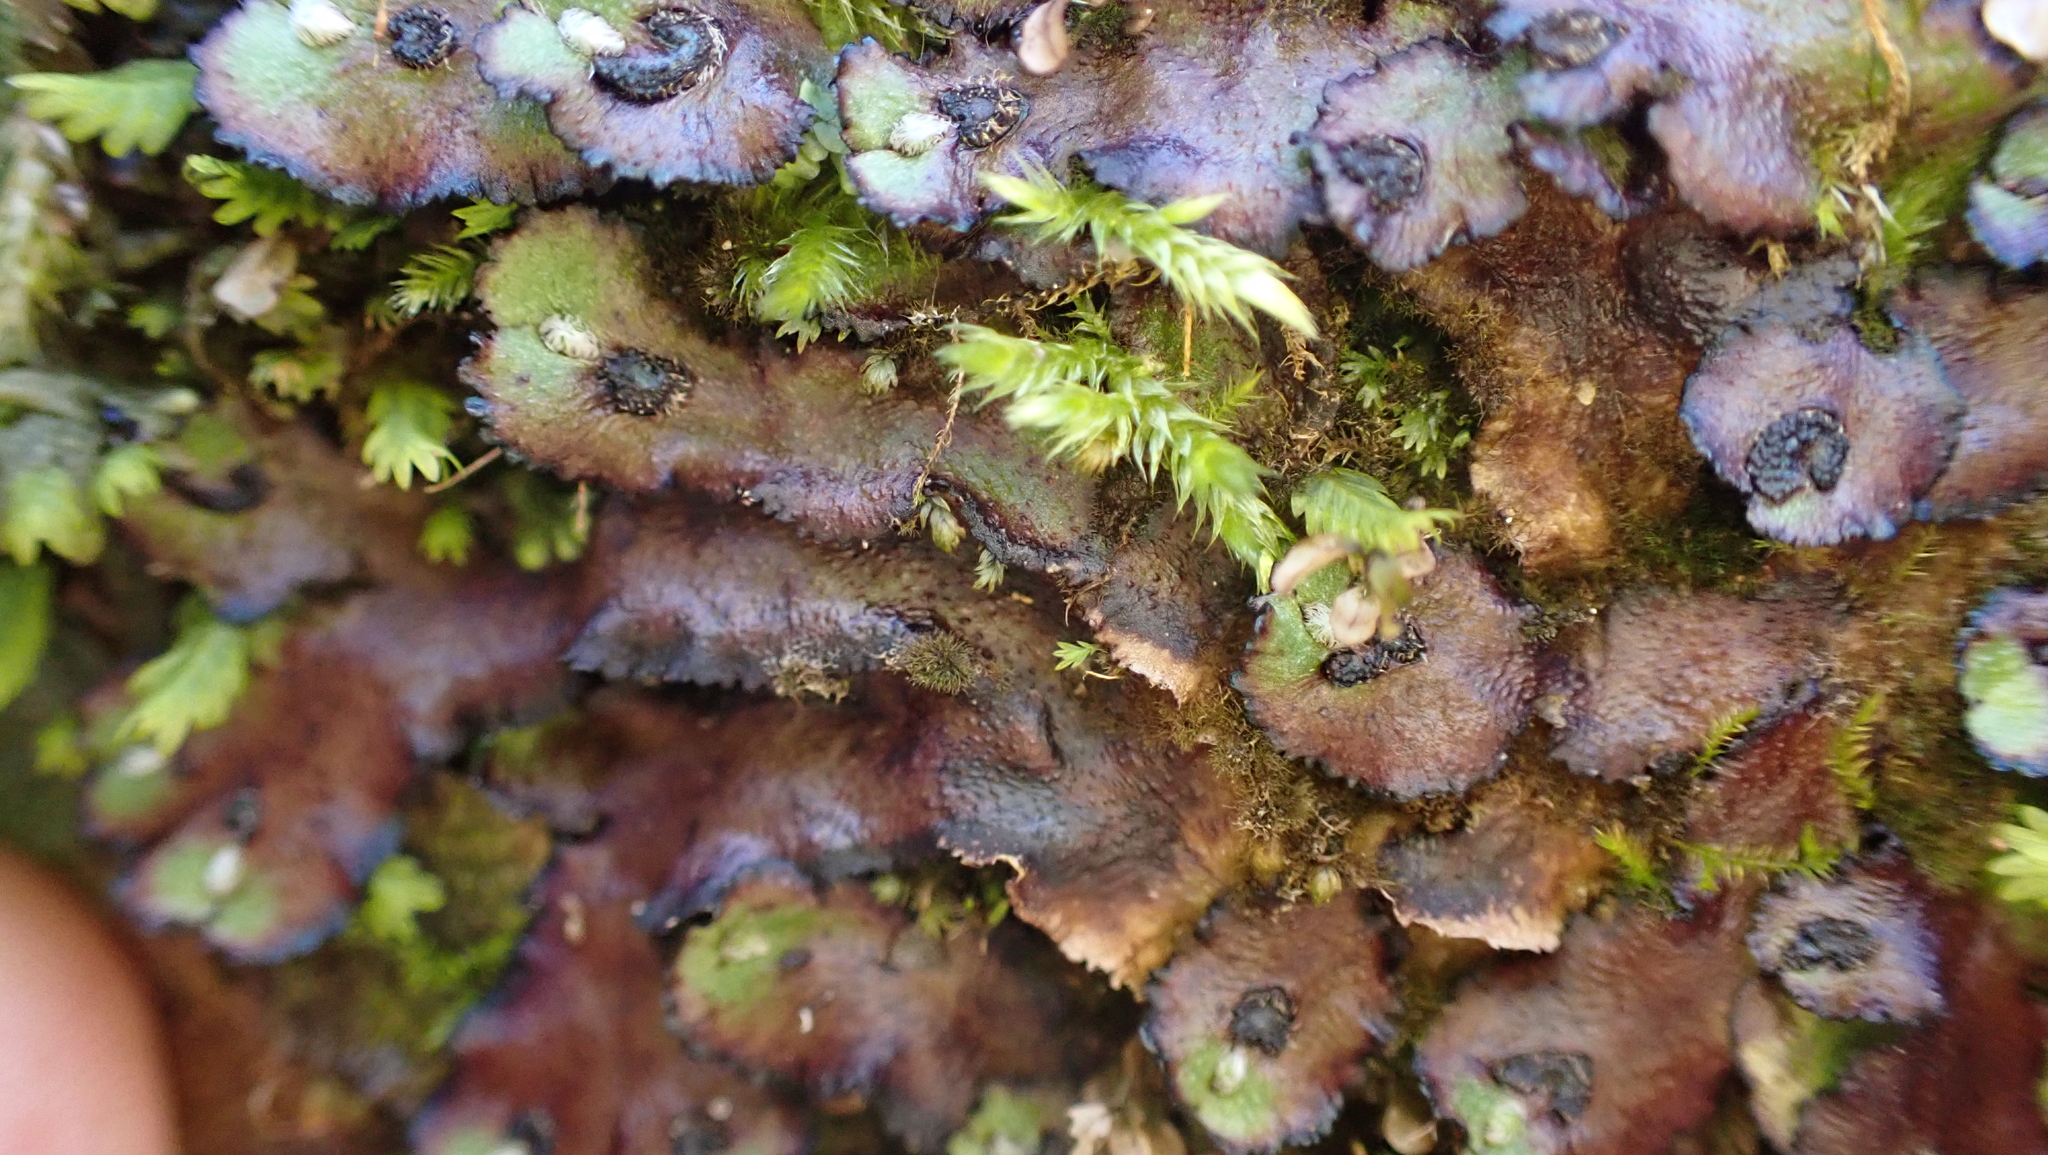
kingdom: Plantae
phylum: Marchantiophyta
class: Marchantiopsida
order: Marchantiales
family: Aytoniaceae
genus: Reboulia
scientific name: Reboulia hemisphaerica
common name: Purple-margined liverwort
